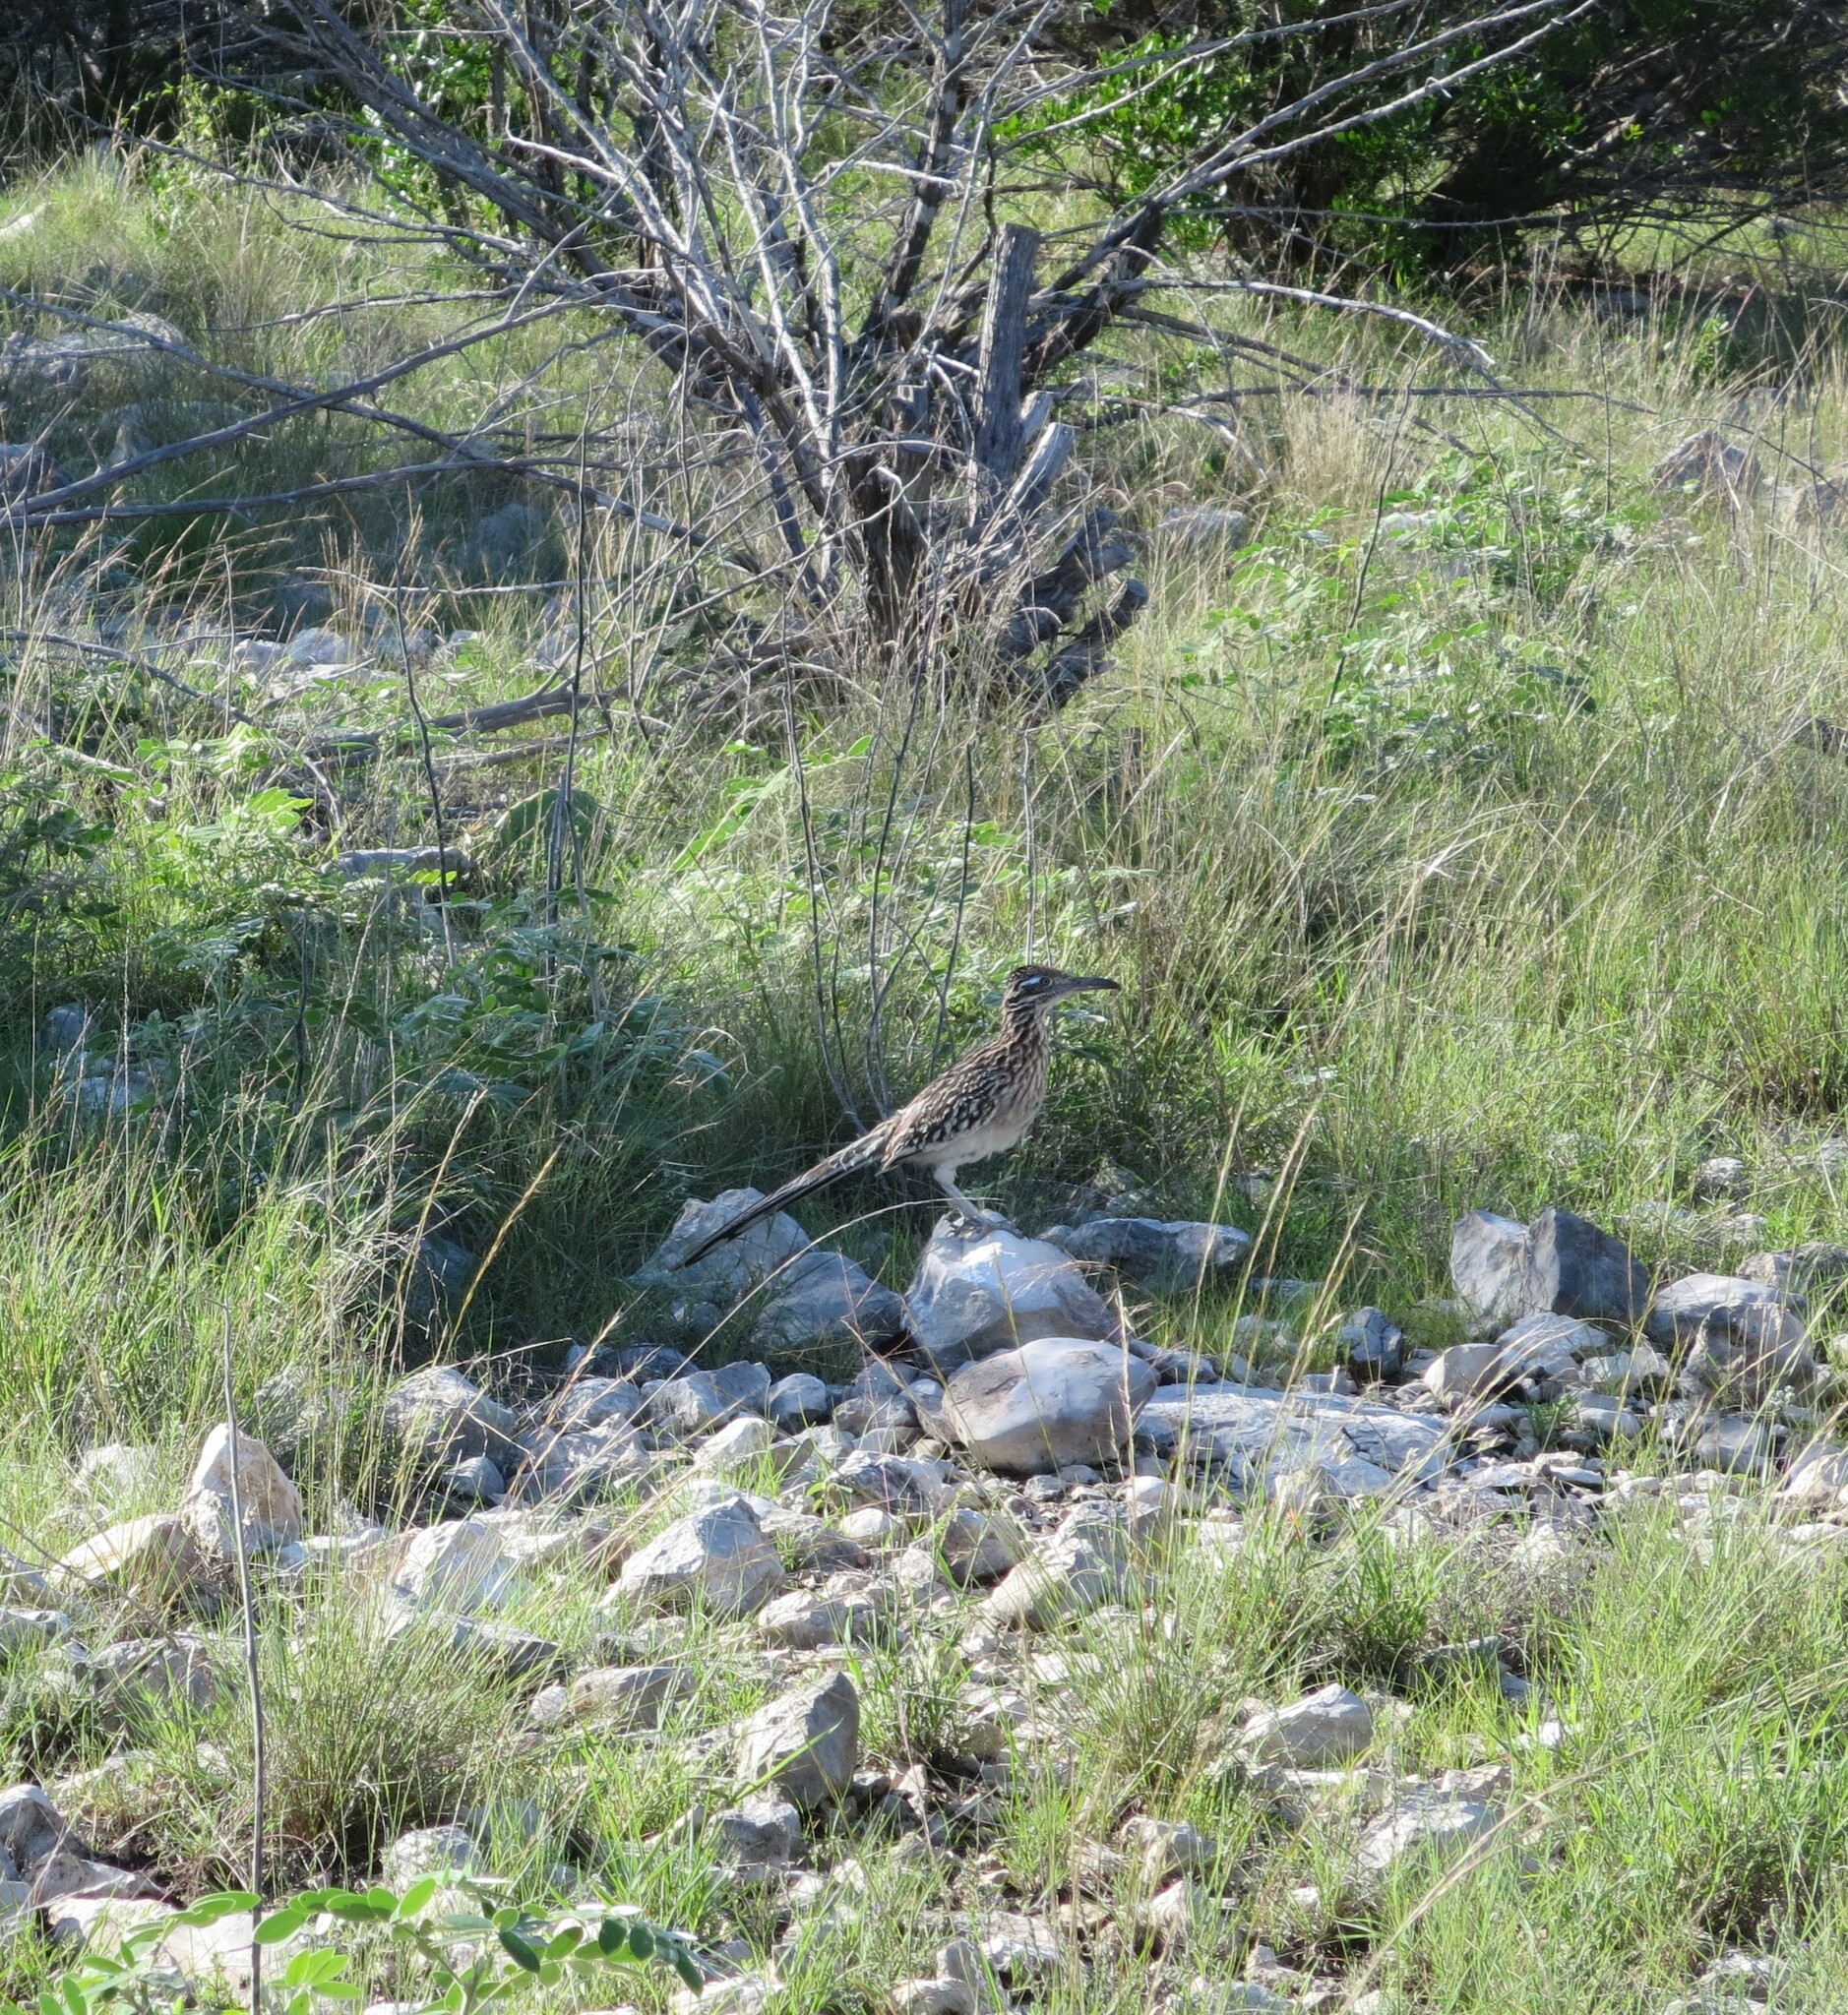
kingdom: Animalia
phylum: Chordata
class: Aves
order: Cuculiformes
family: Cuculidae
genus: Geococcyx
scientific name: Geococcyx californianus
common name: Greater roadrunner
